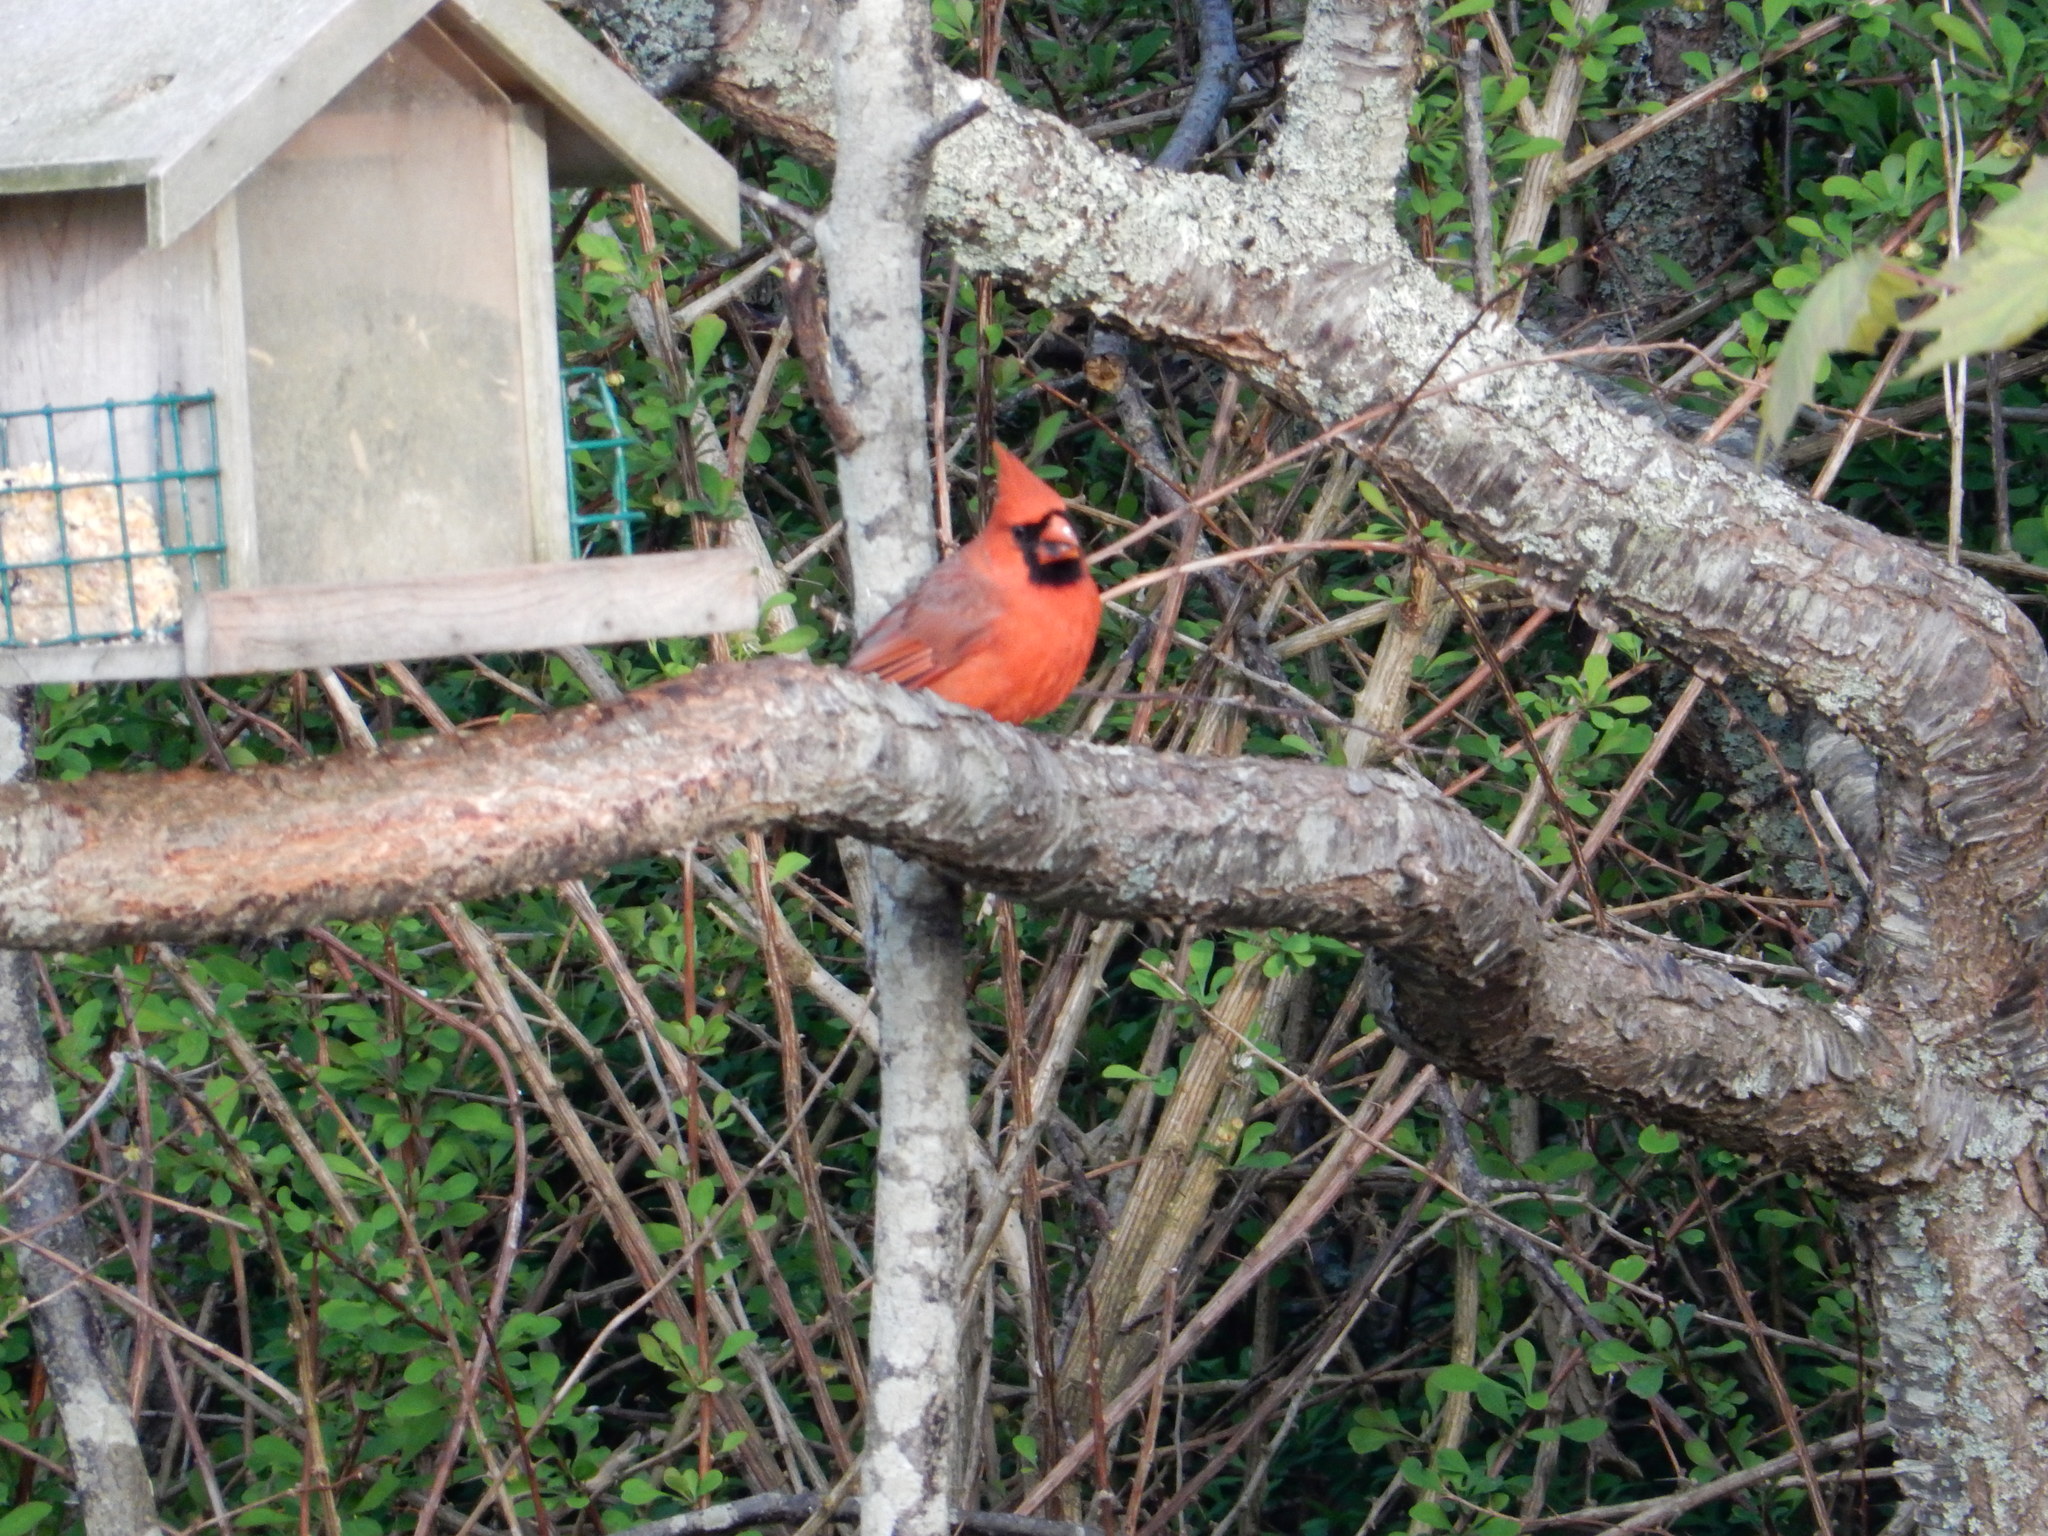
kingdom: Animalia
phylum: Chordata
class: Aves
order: Passeriformes
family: Cardinalidae
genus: Cardinalis
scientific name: Cardinalis cardinalis
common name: Northern cardinal
